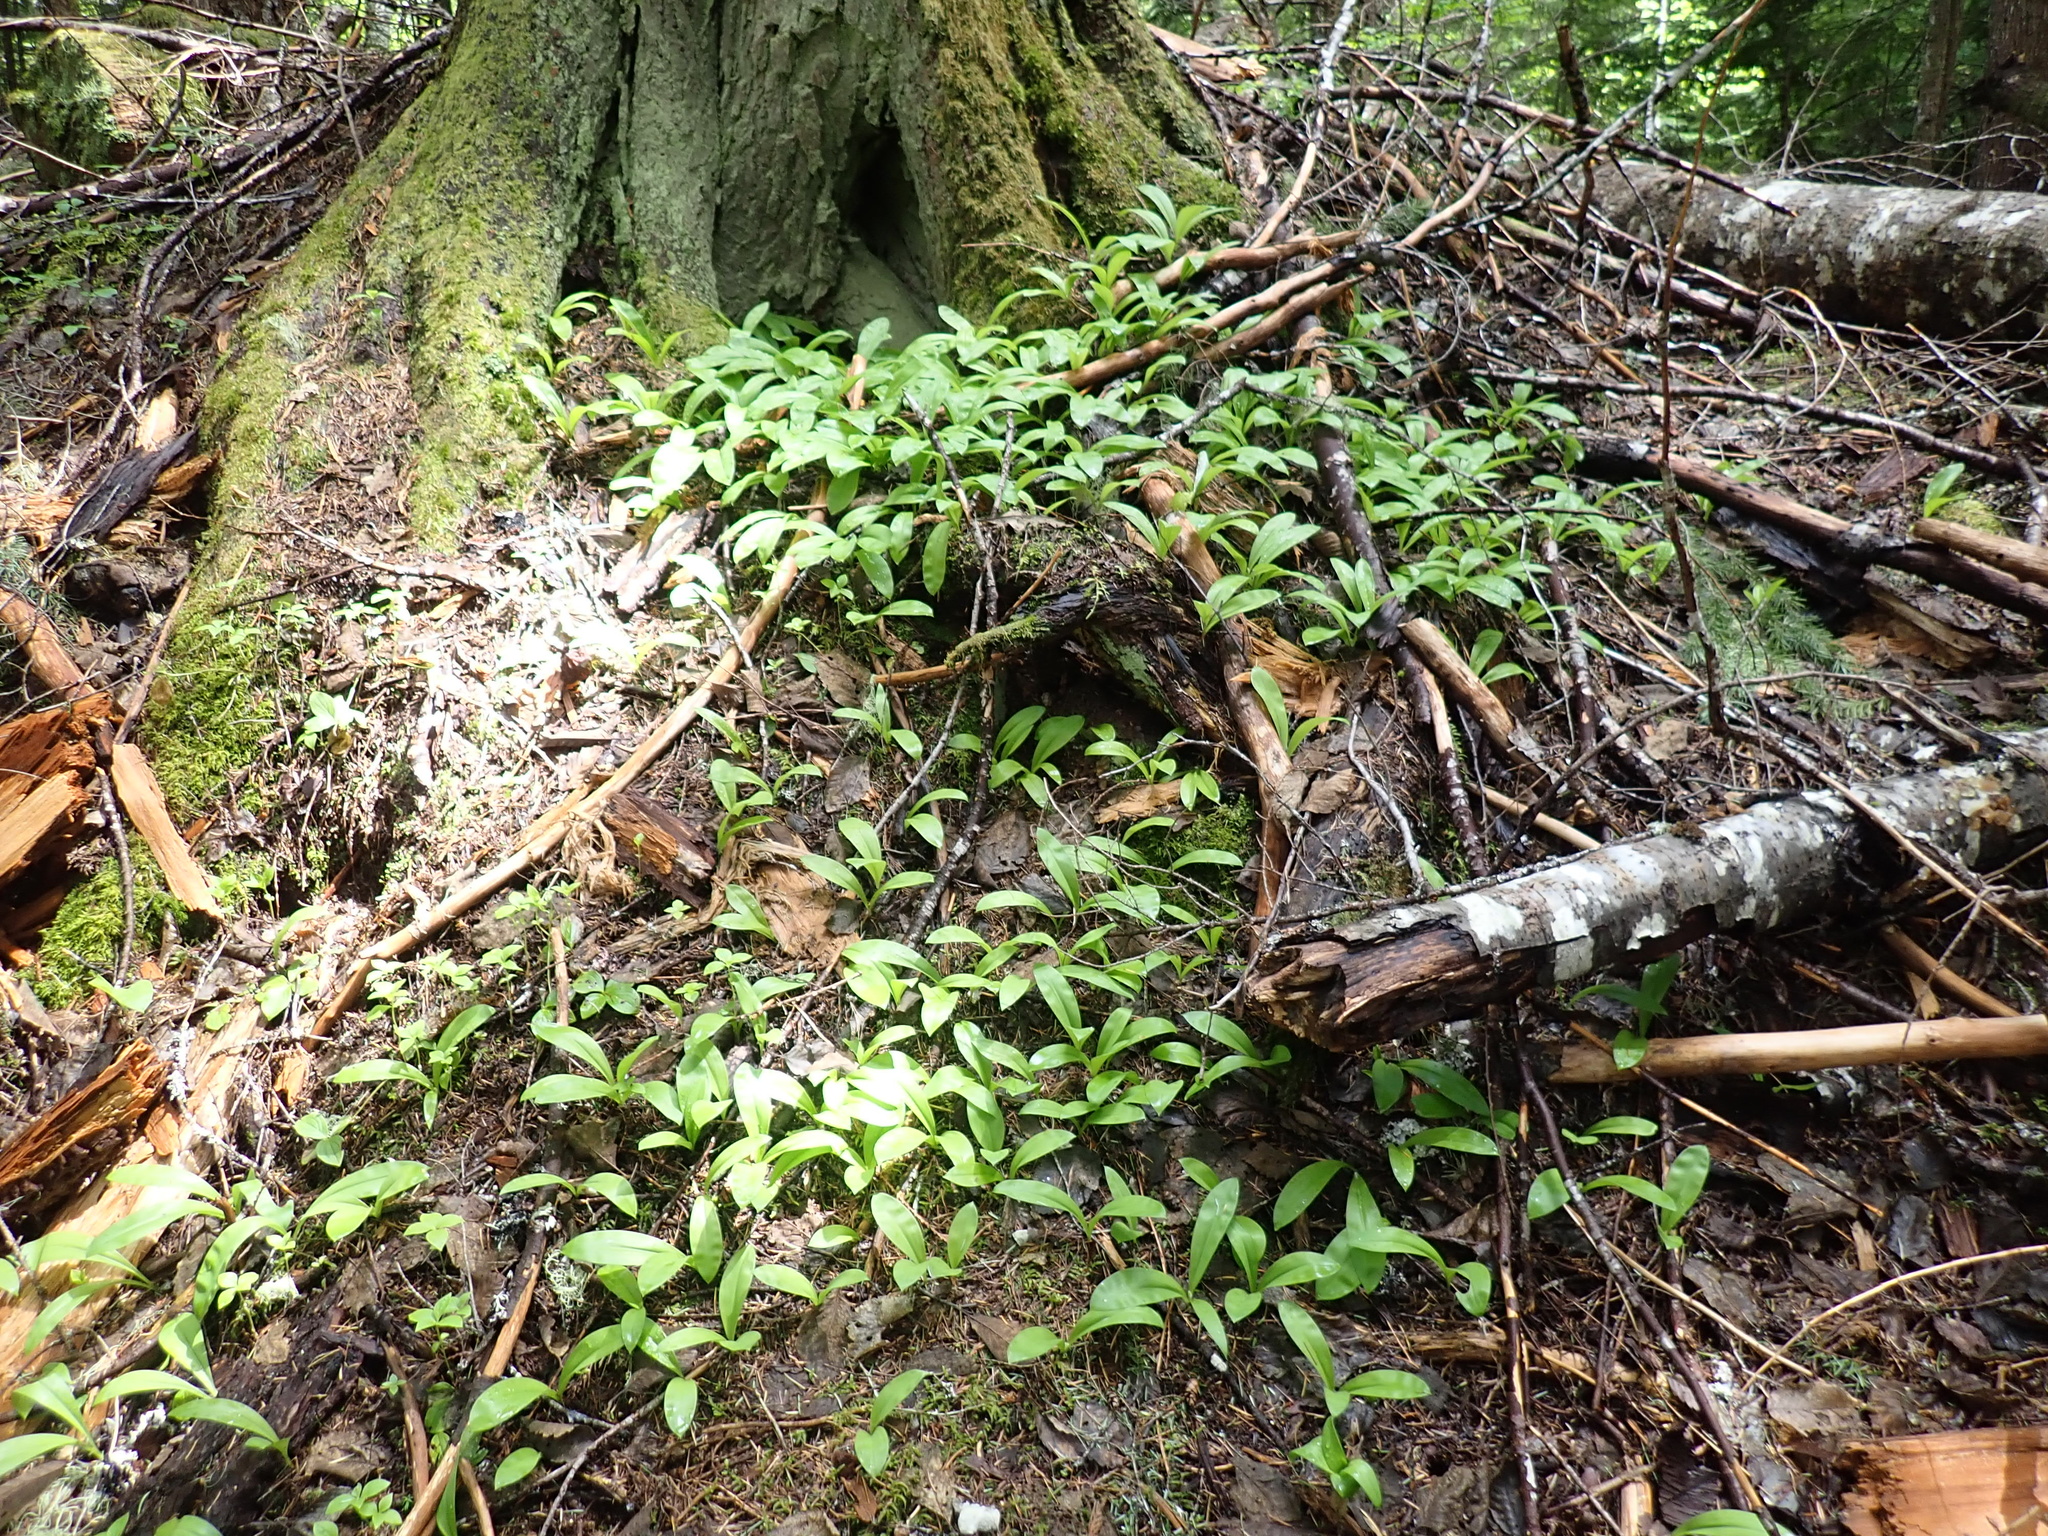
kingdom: Plantae
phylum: Tracheophyta
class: Liliopsida
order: Liliales
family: Liliaceae
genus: Clintonia
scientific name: Clintonia uniflora
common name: Queen's cup
